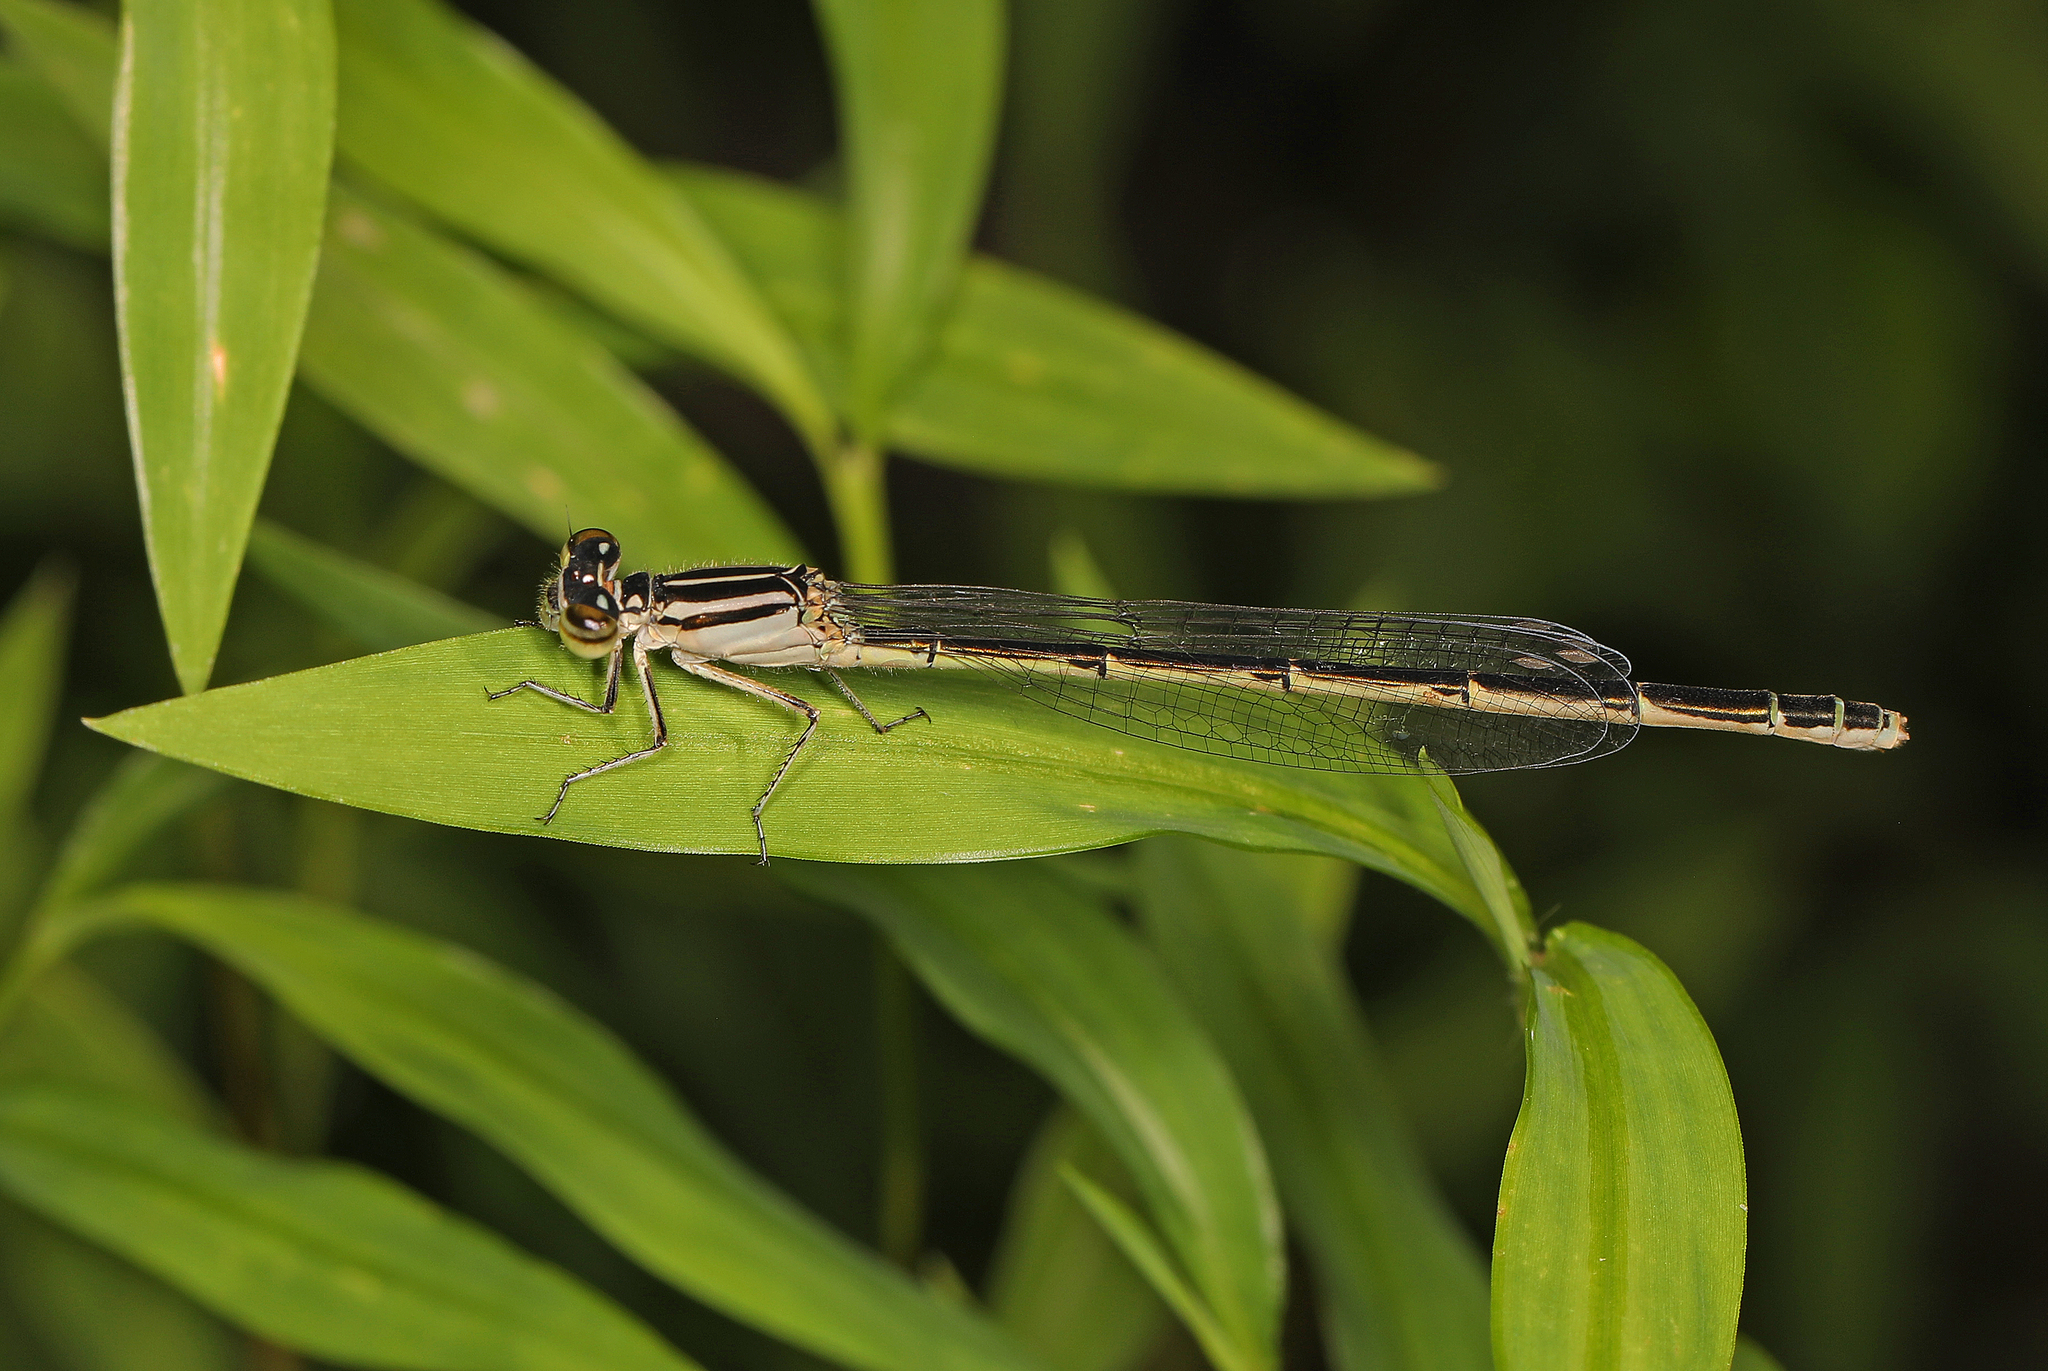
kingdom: Animalia
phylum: Arthropoda
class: Insecta
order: Odonata
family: Coenagrionidae
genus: Enallagma
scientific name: Enallagma durum
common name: Big bluet
